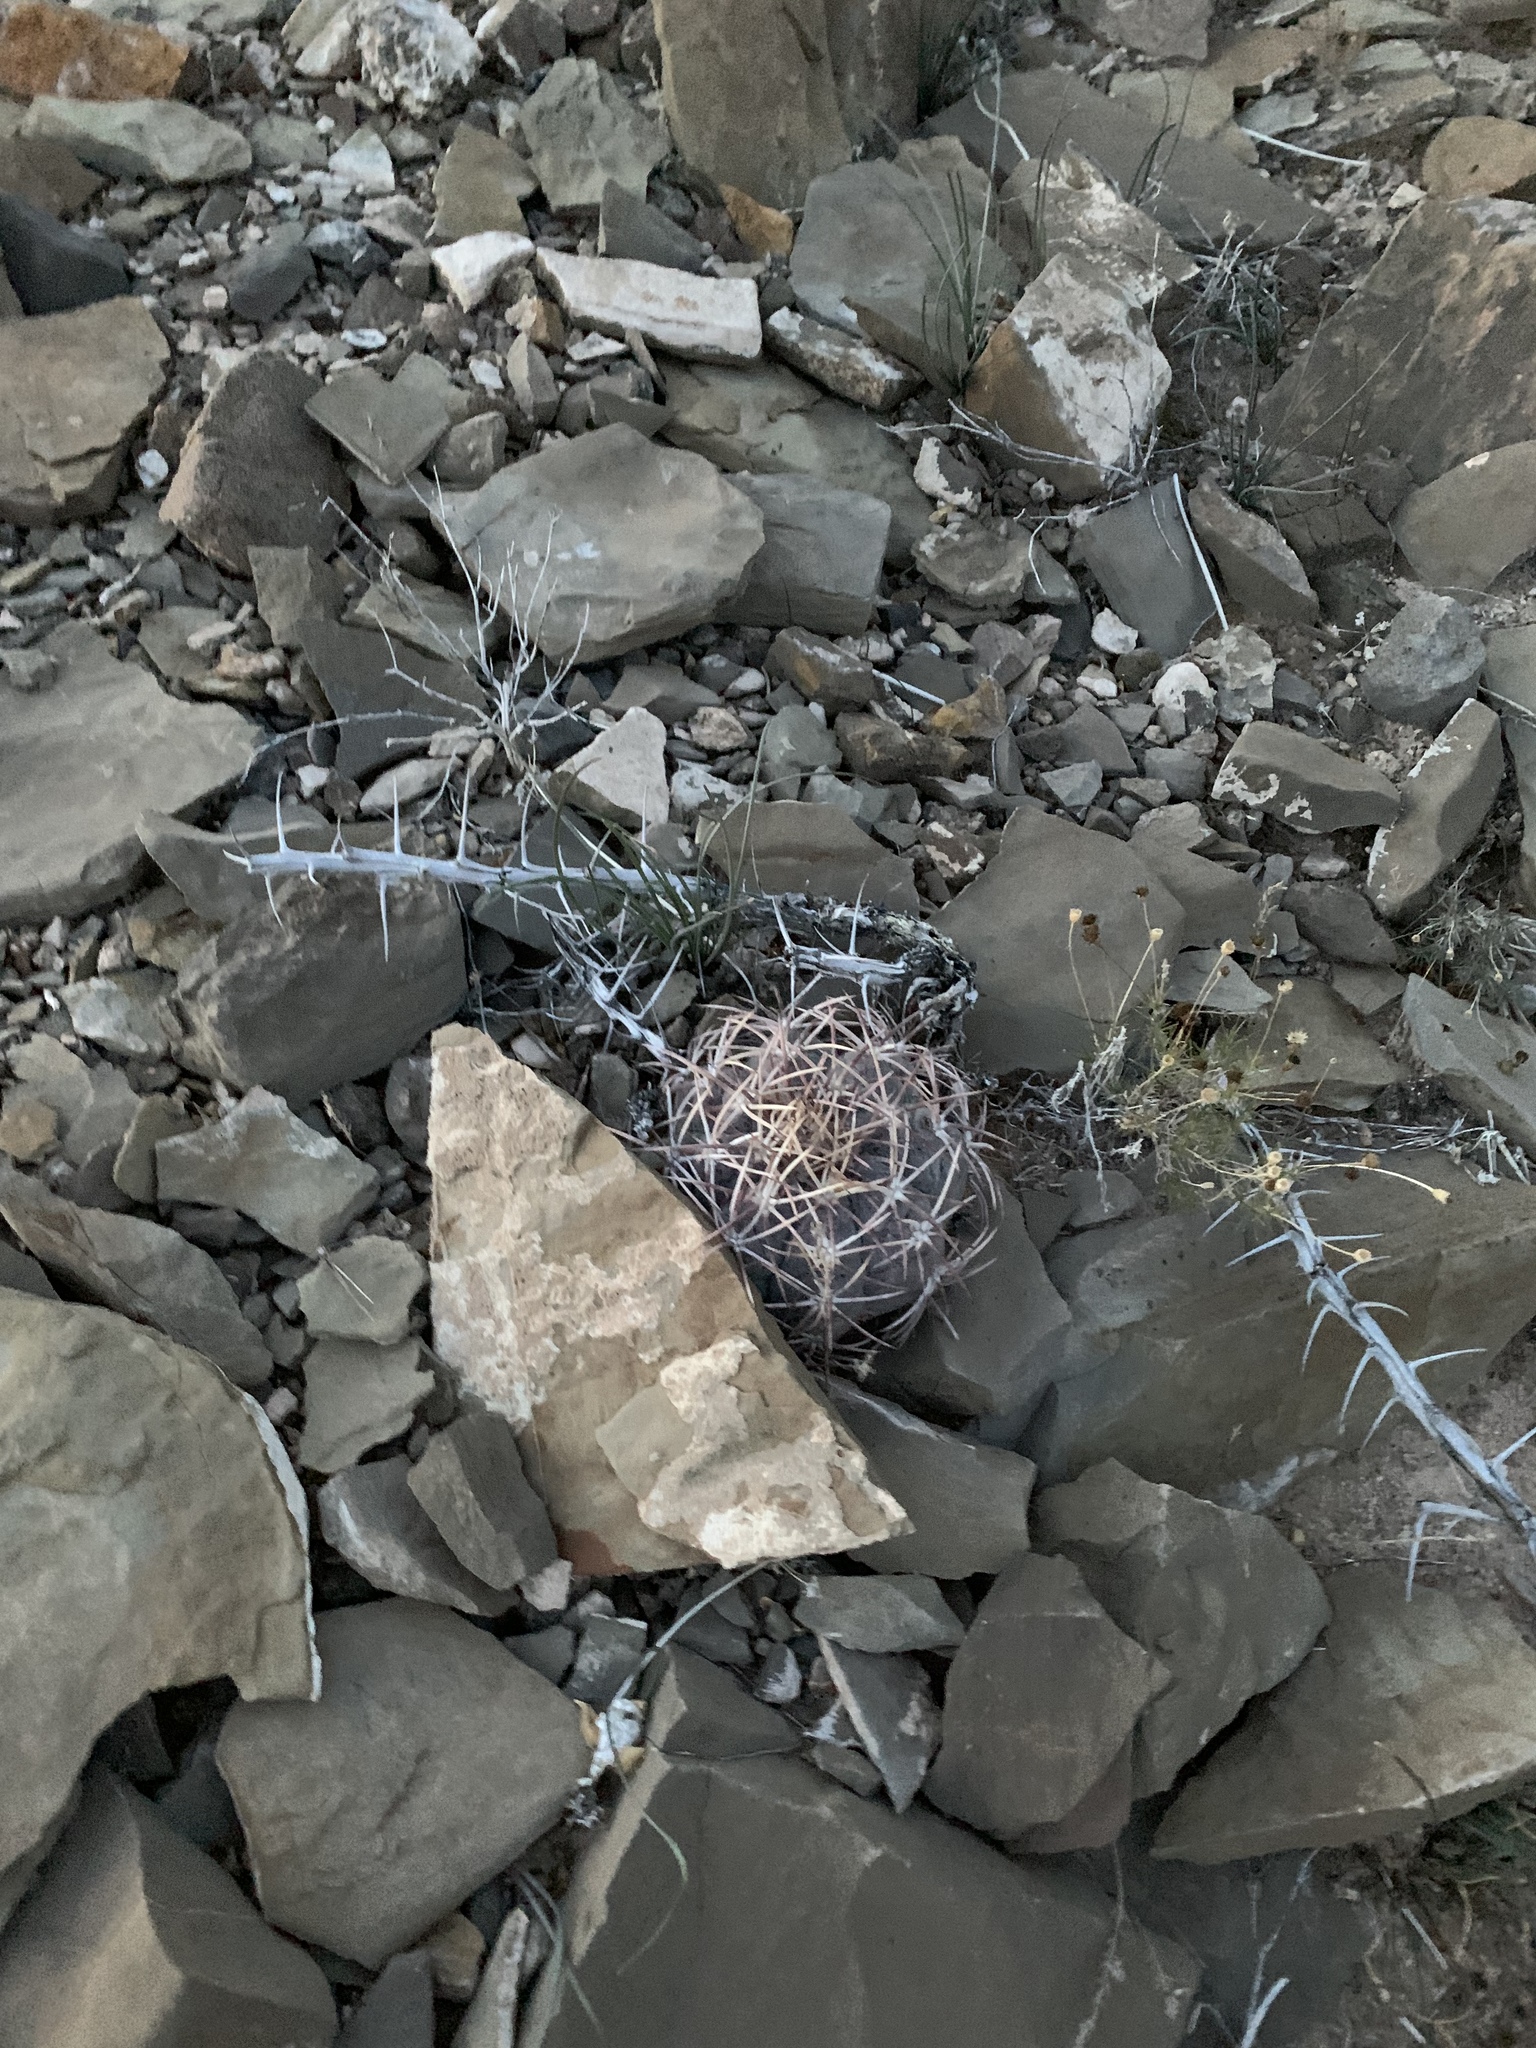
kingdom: Plantae
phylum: Tracheophyta
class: Magnoliopsida
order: Caryophyllales
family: Cactaceae
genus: Echinocactus
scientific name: Echinocactus horizonthalonius
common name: Devilshead
